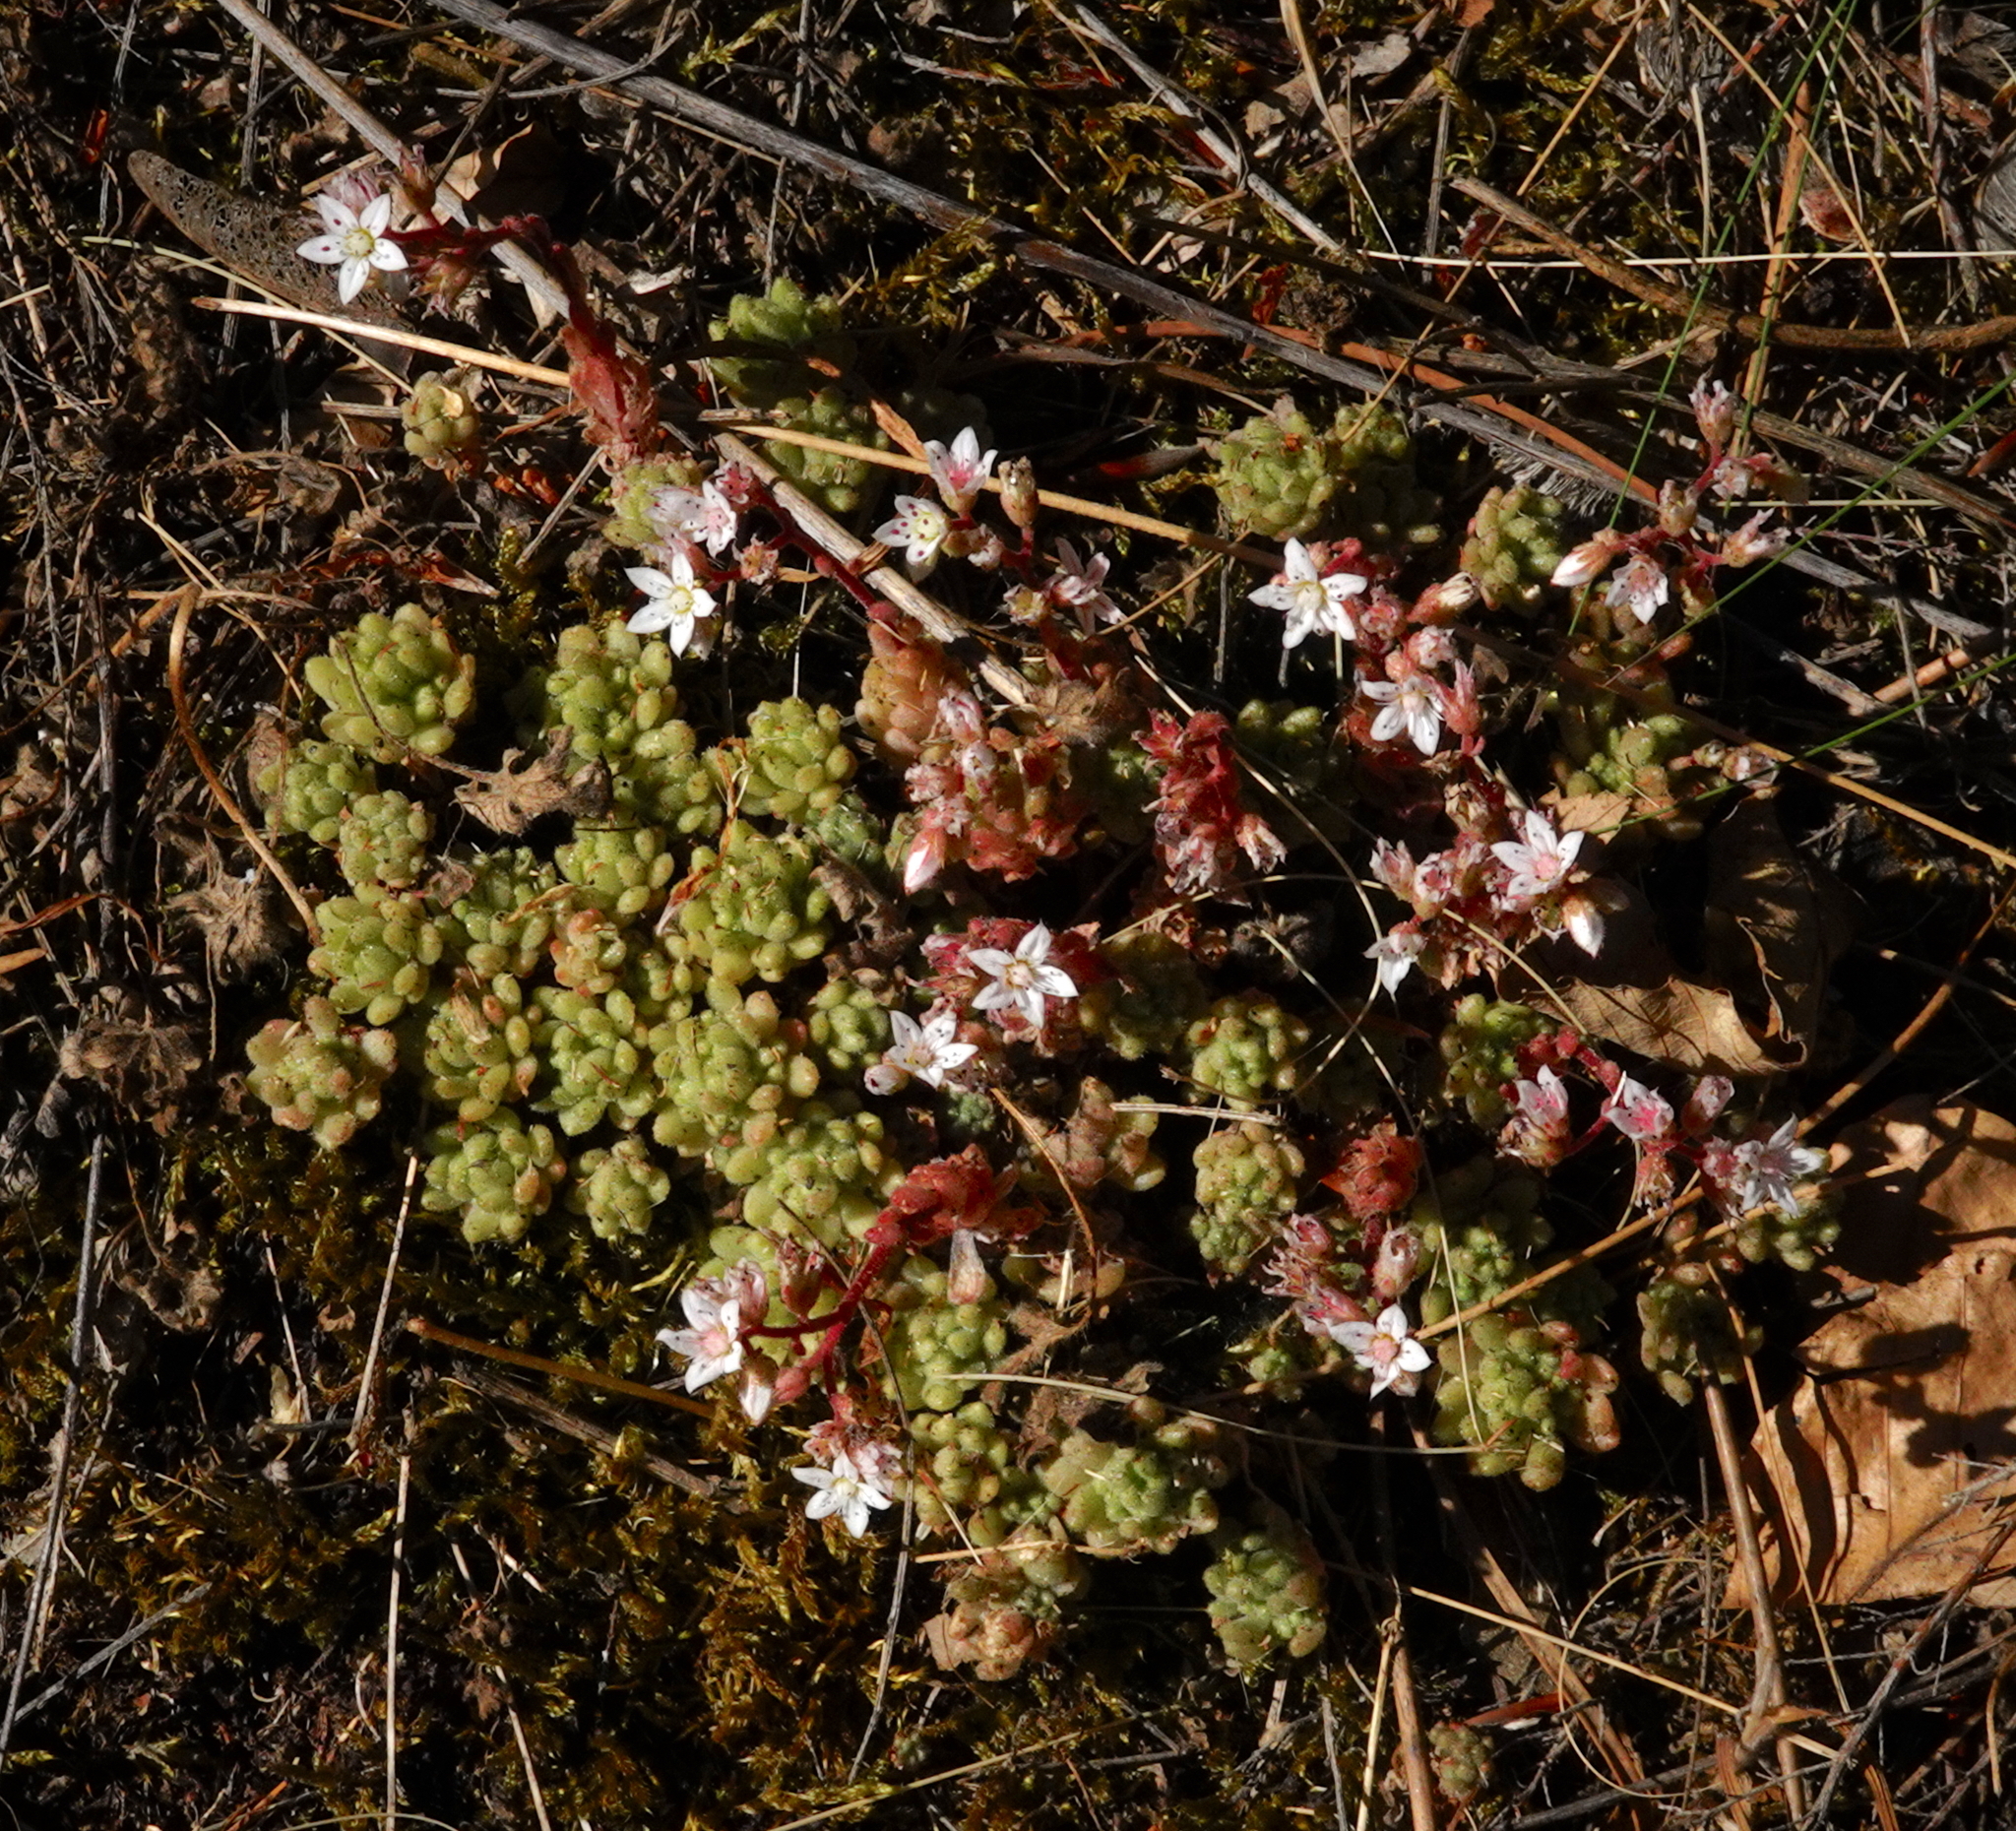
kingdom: Plantae
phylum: Tracheophyta
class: Magnoliopsida
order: Saxifragales
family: Crassulaceae
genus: Sedum
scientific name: Sedum hirsutum
